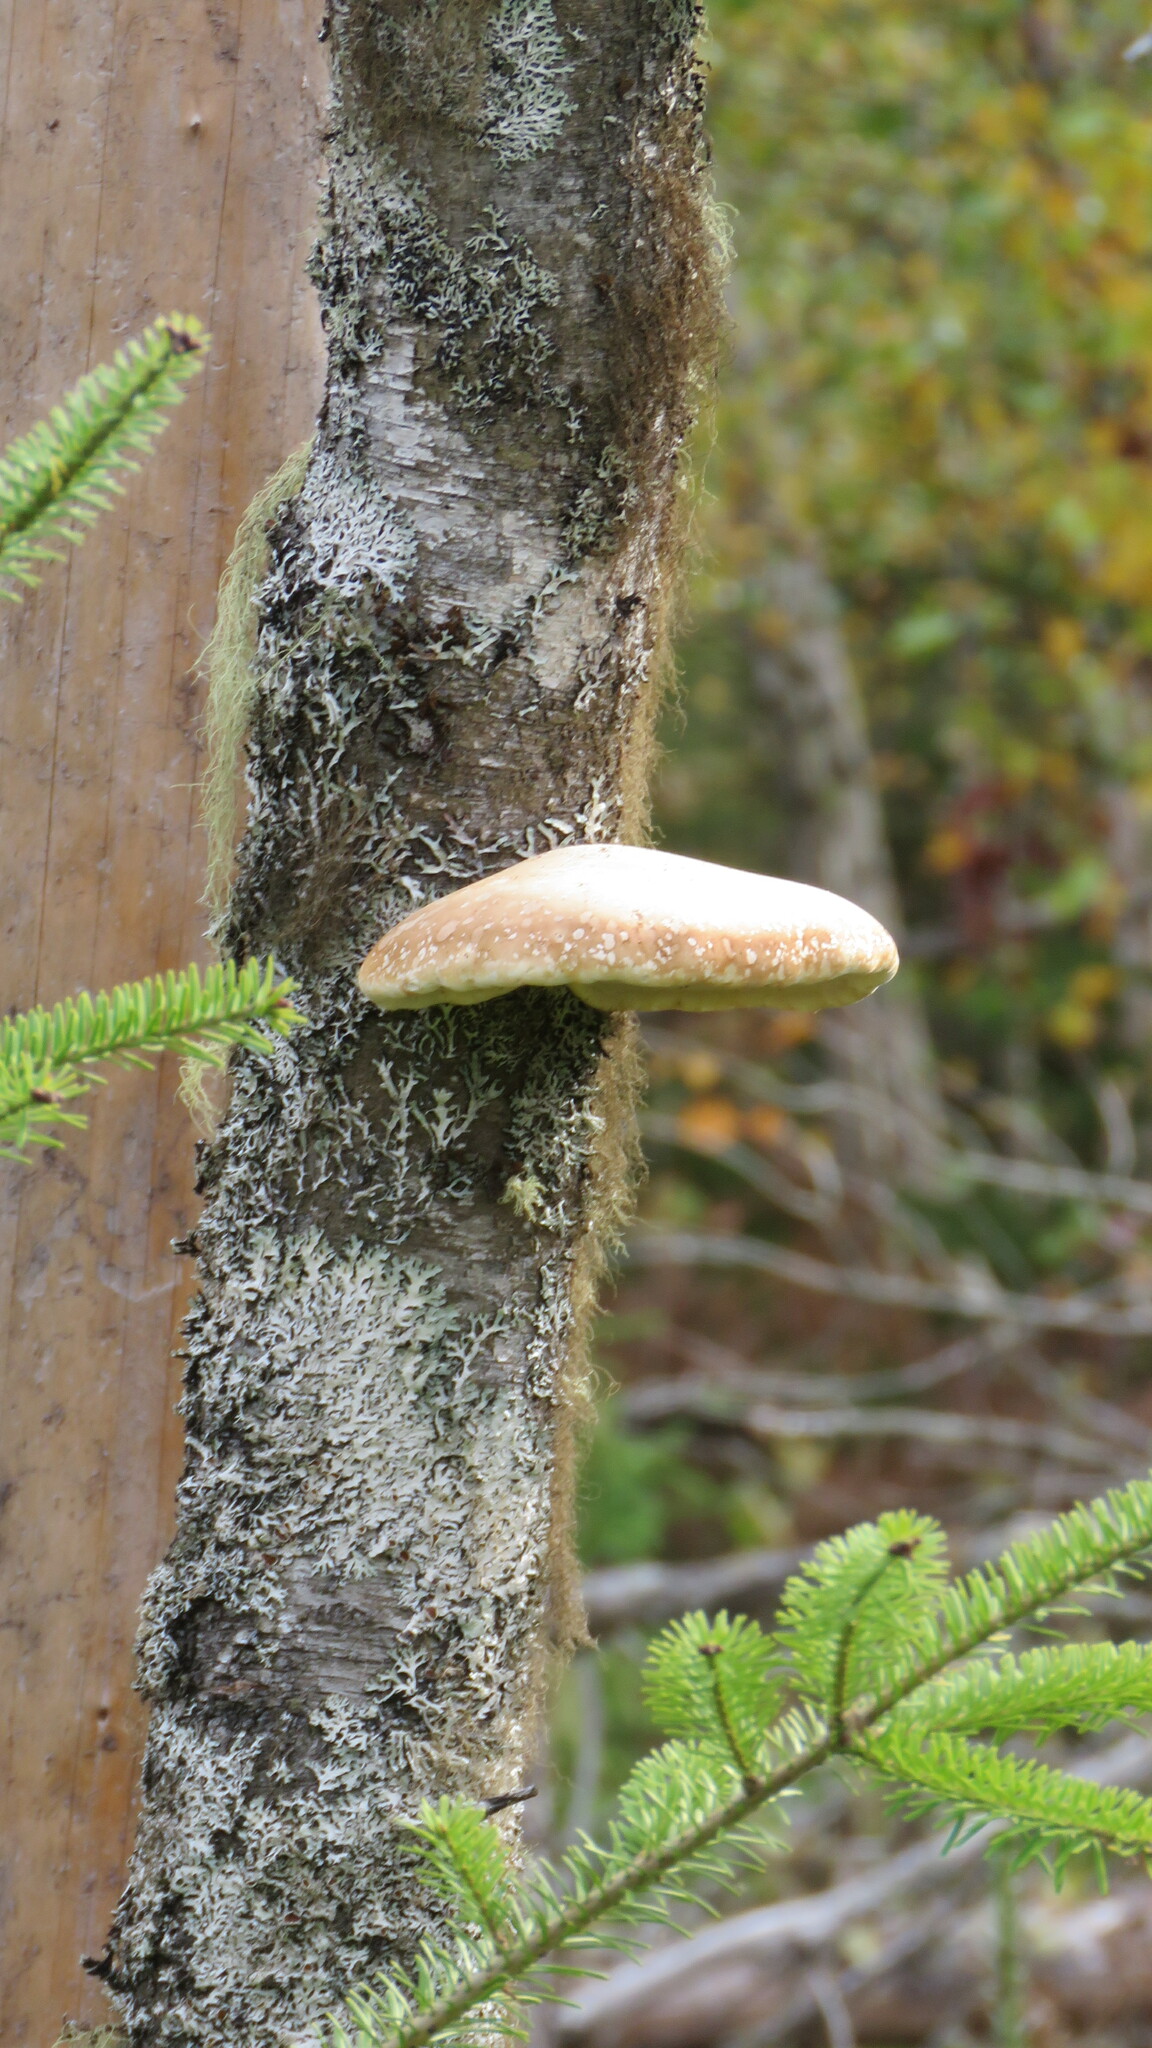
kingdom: Fungi
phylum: Basidiomycota
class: Agaricomycetes
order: Polyporales
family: Fomitopsidaceae
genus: Fomitopsis
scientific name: Fomitopsis betulina
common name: Birch polypore
